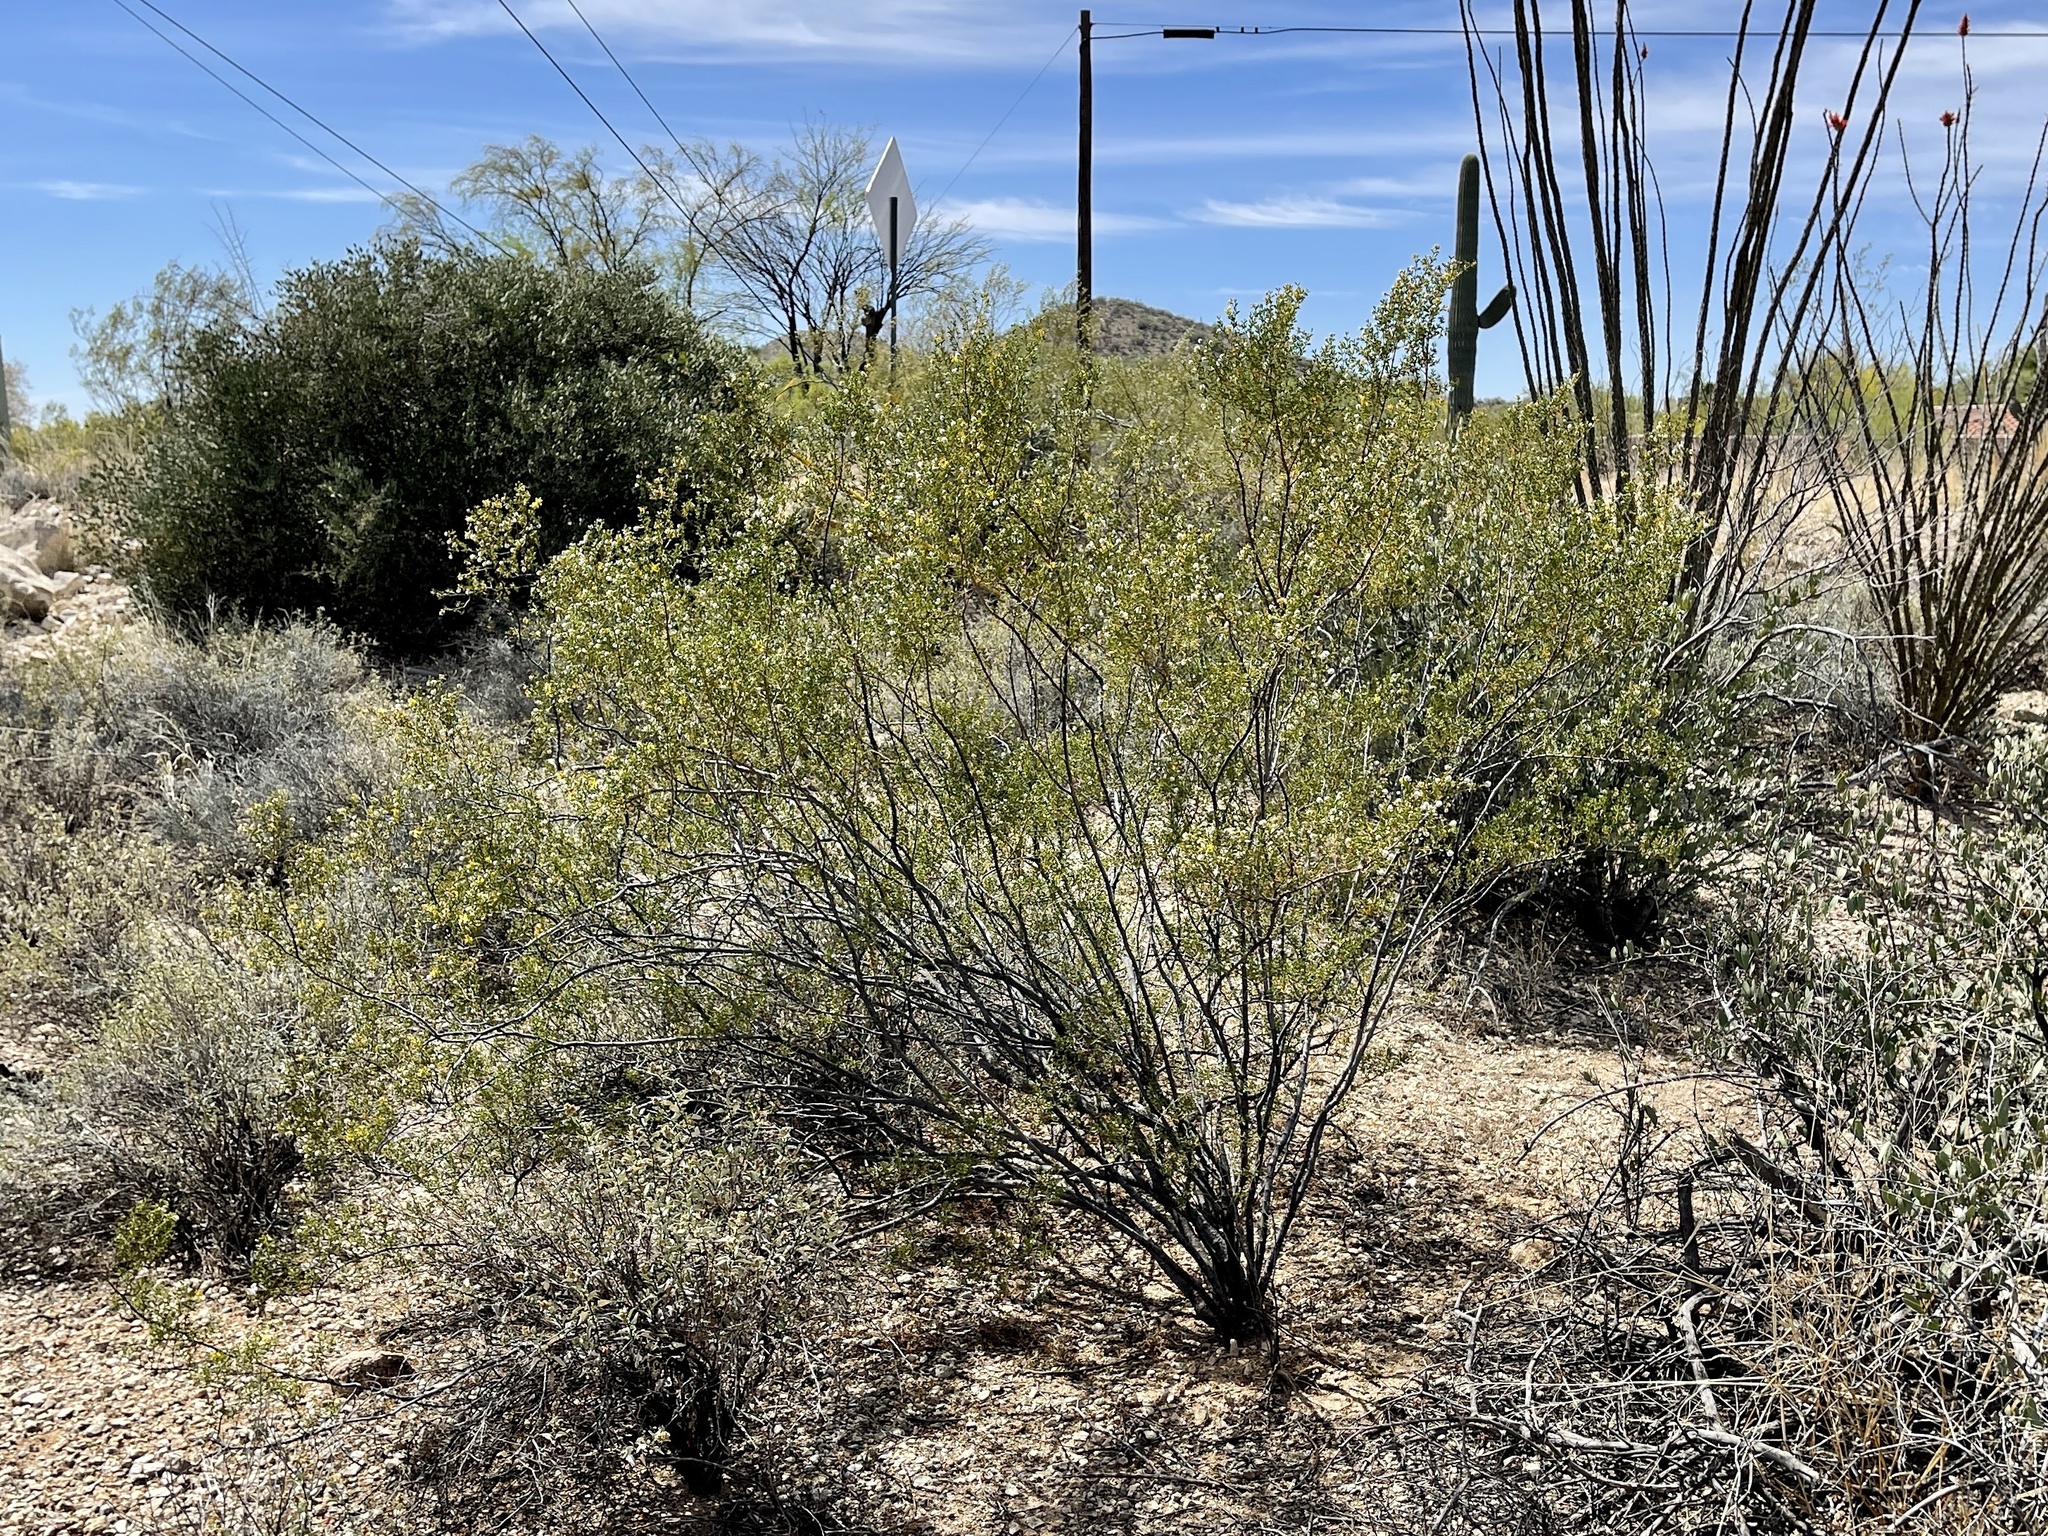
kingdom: Plantae
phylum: Tracheophyta
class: Magnoliopsida
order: Zygophyllales
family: Zygophyllaceae
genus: Larrea
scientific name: Larrea tridentata
